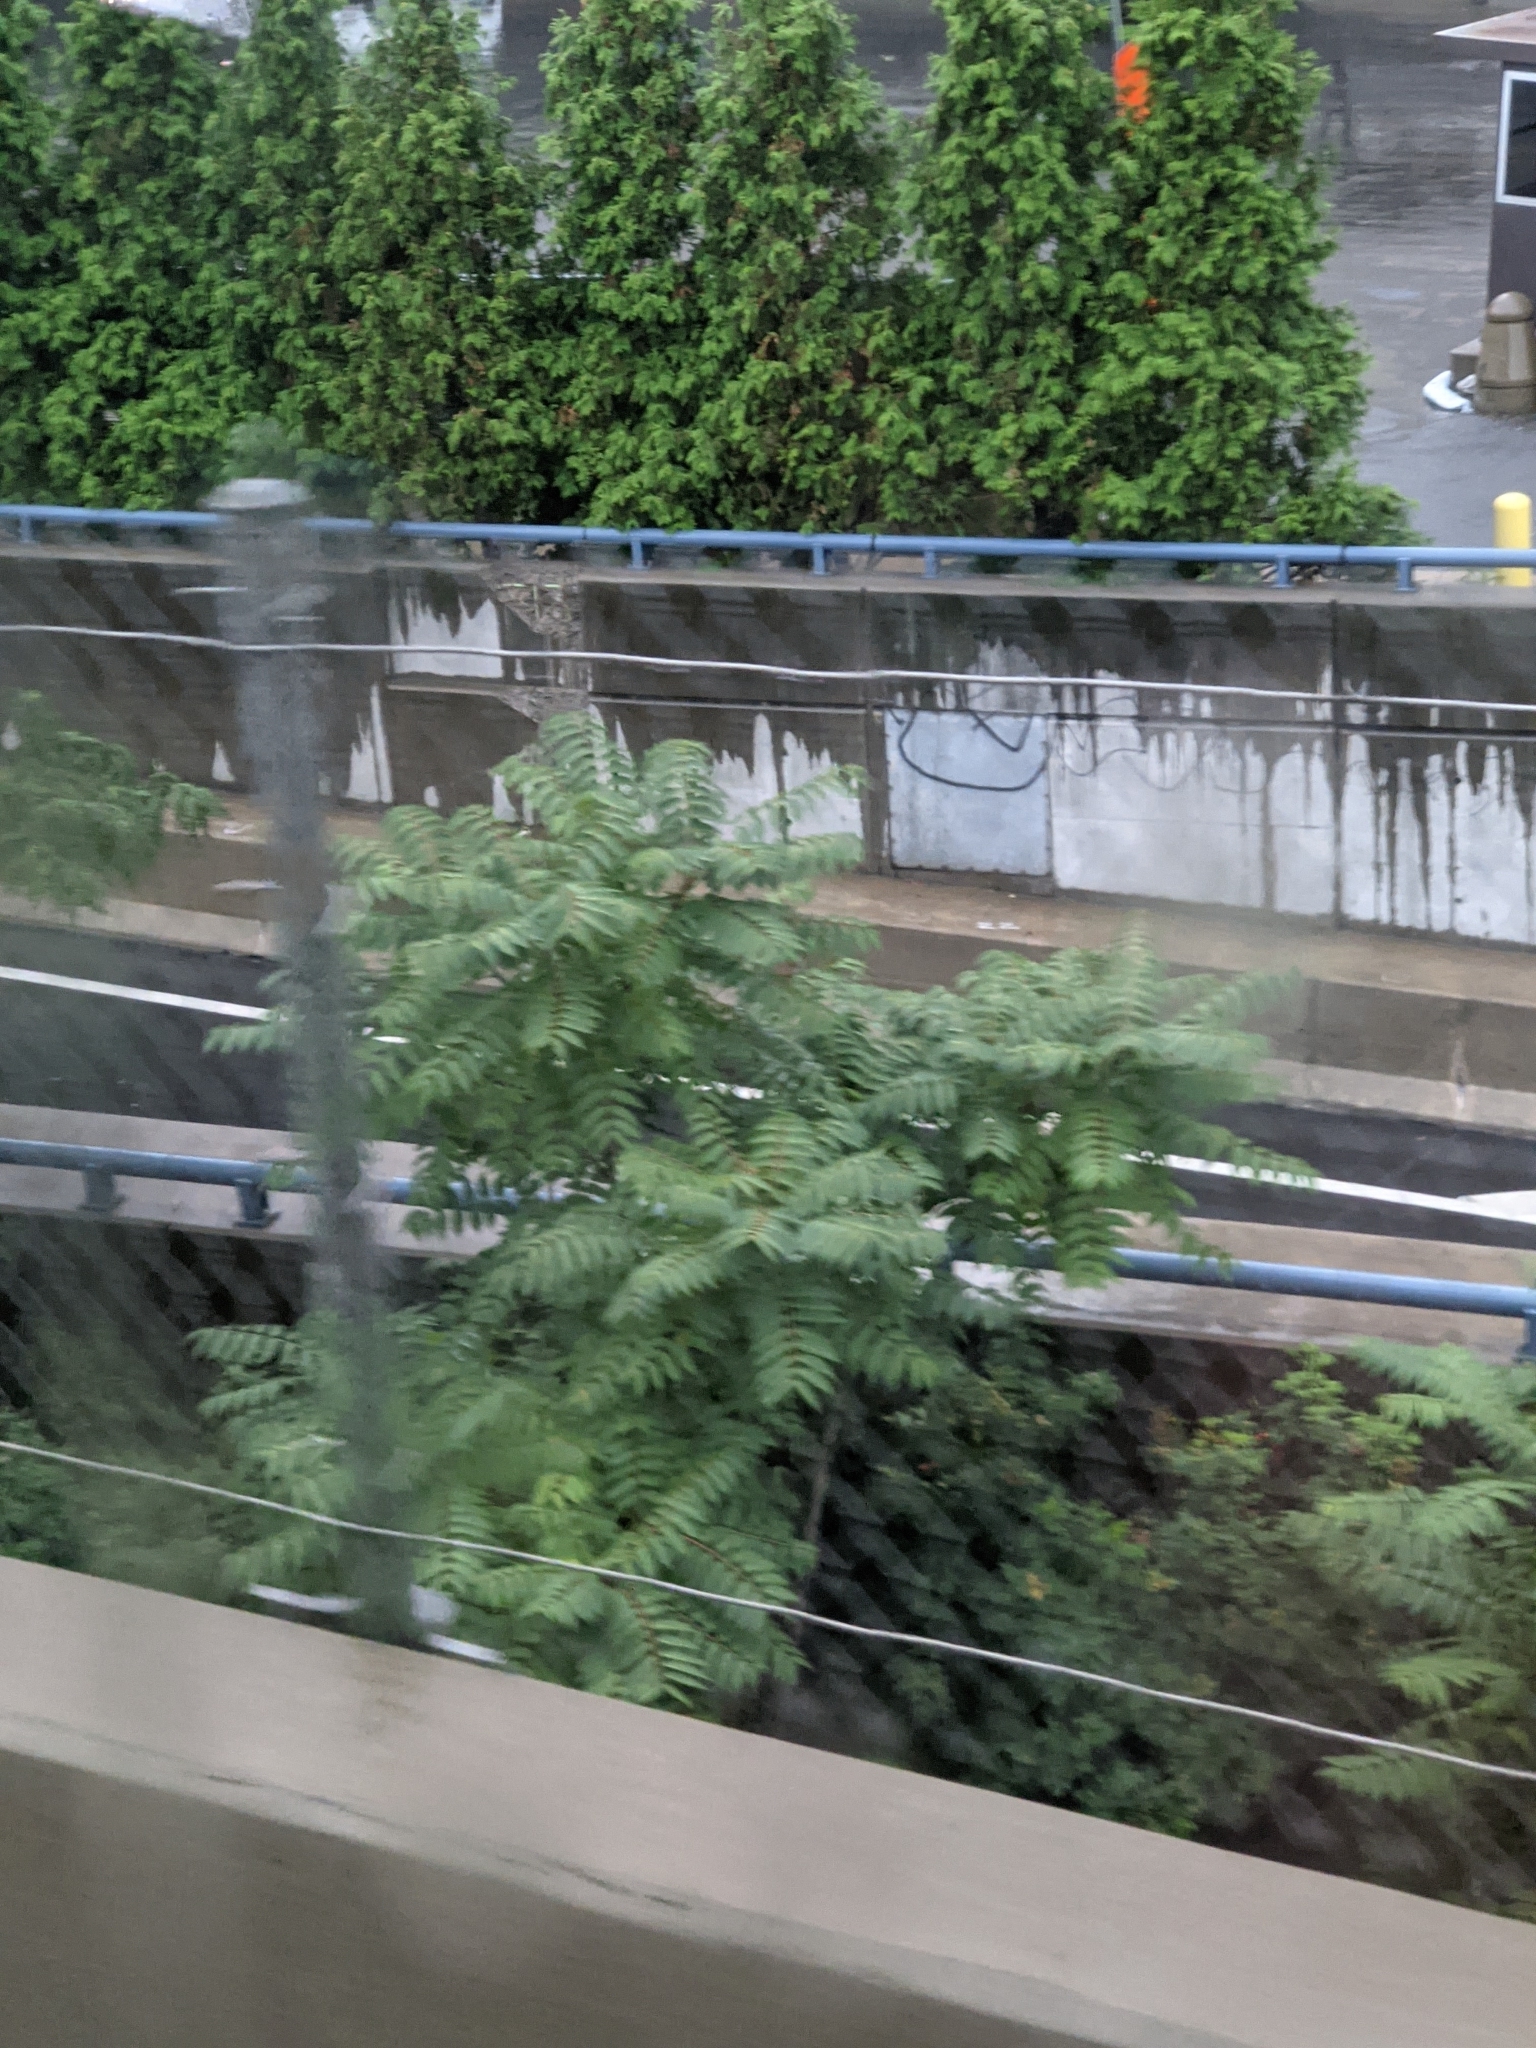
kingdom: Plantae
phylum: Tracheophyta
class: Magnoliopsida
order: Sapindales
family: Anacardiaceae
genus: Rhus
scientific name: Rhus
